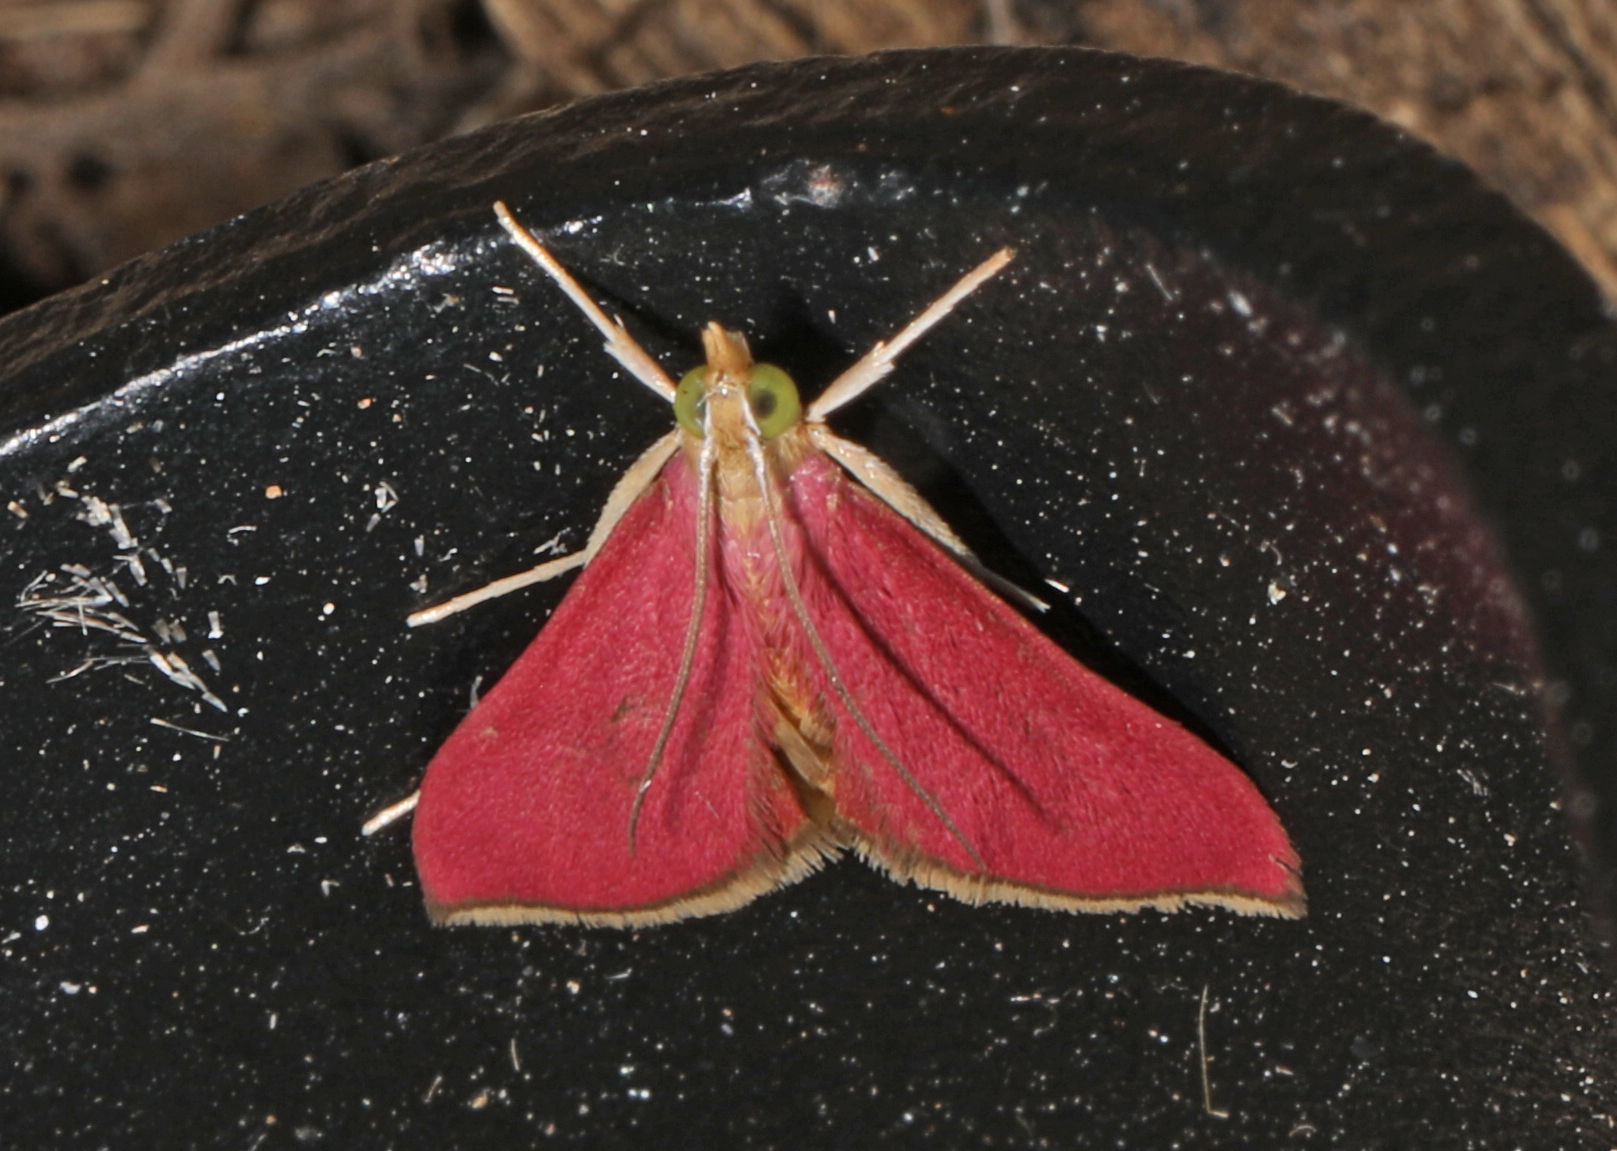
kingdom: Animalia
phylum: Arthropoda
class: Insecta
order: Lepidoptera
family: Crambidae
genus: Pyrausta
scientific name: Pyrausta inornatalis
